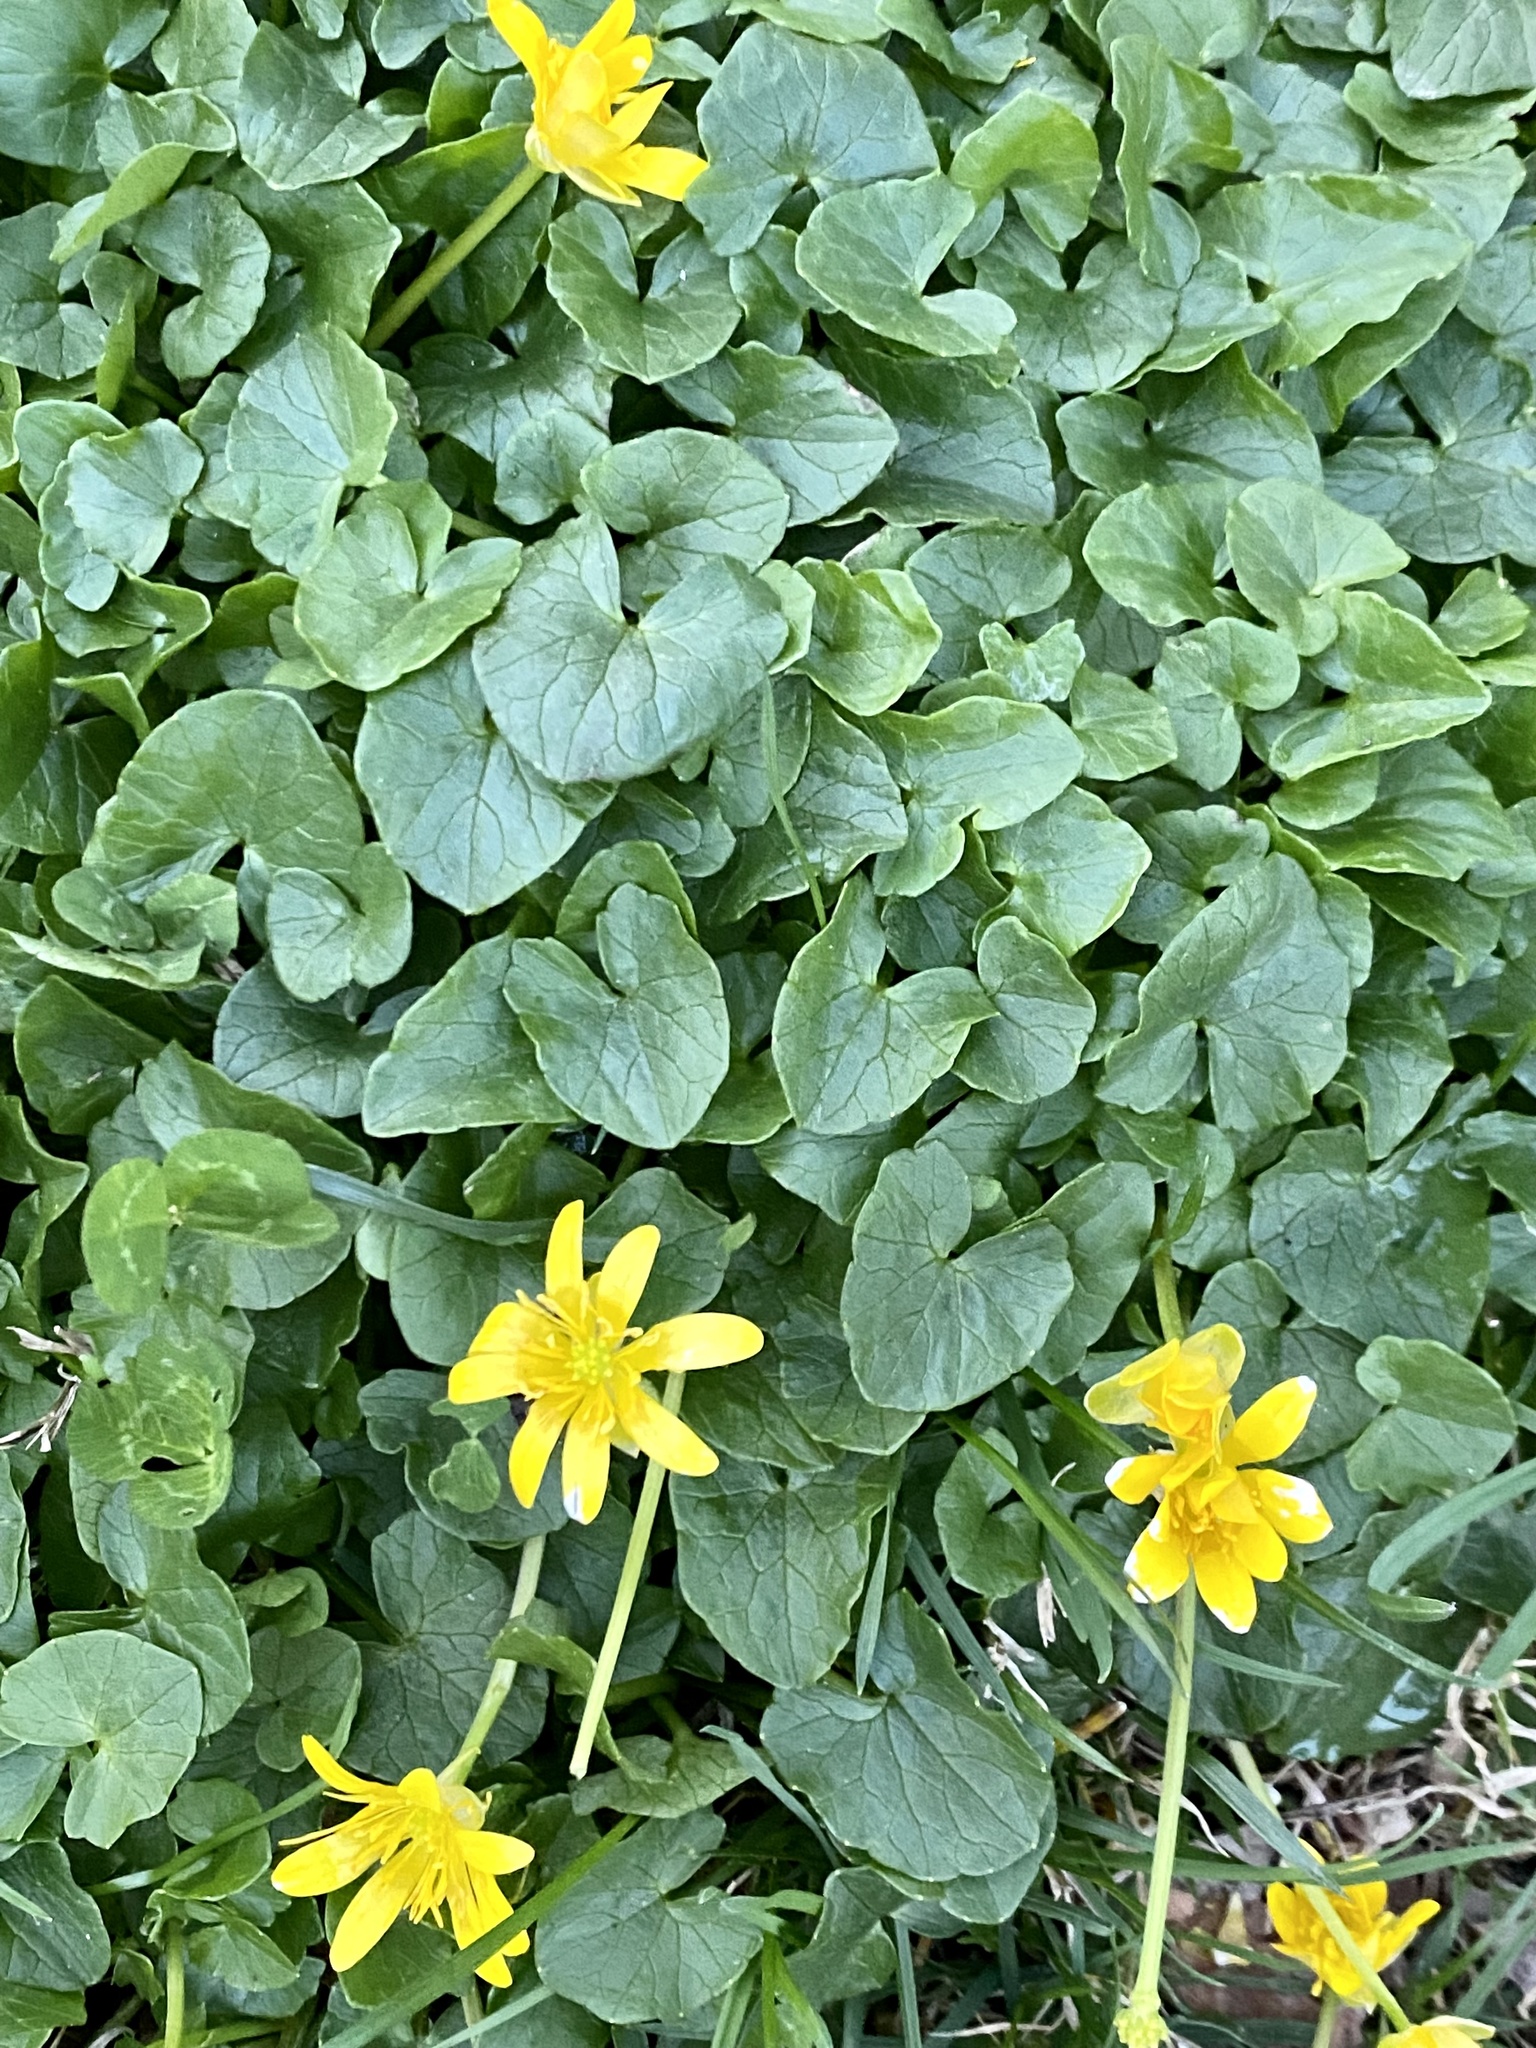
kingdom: Plantae
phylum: Tracheophyta
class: Magnoliopsida
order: Ranunculales
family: Ranunculaceae
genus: Ficaria
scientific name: Ficaria verna
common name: Lesser celandine
